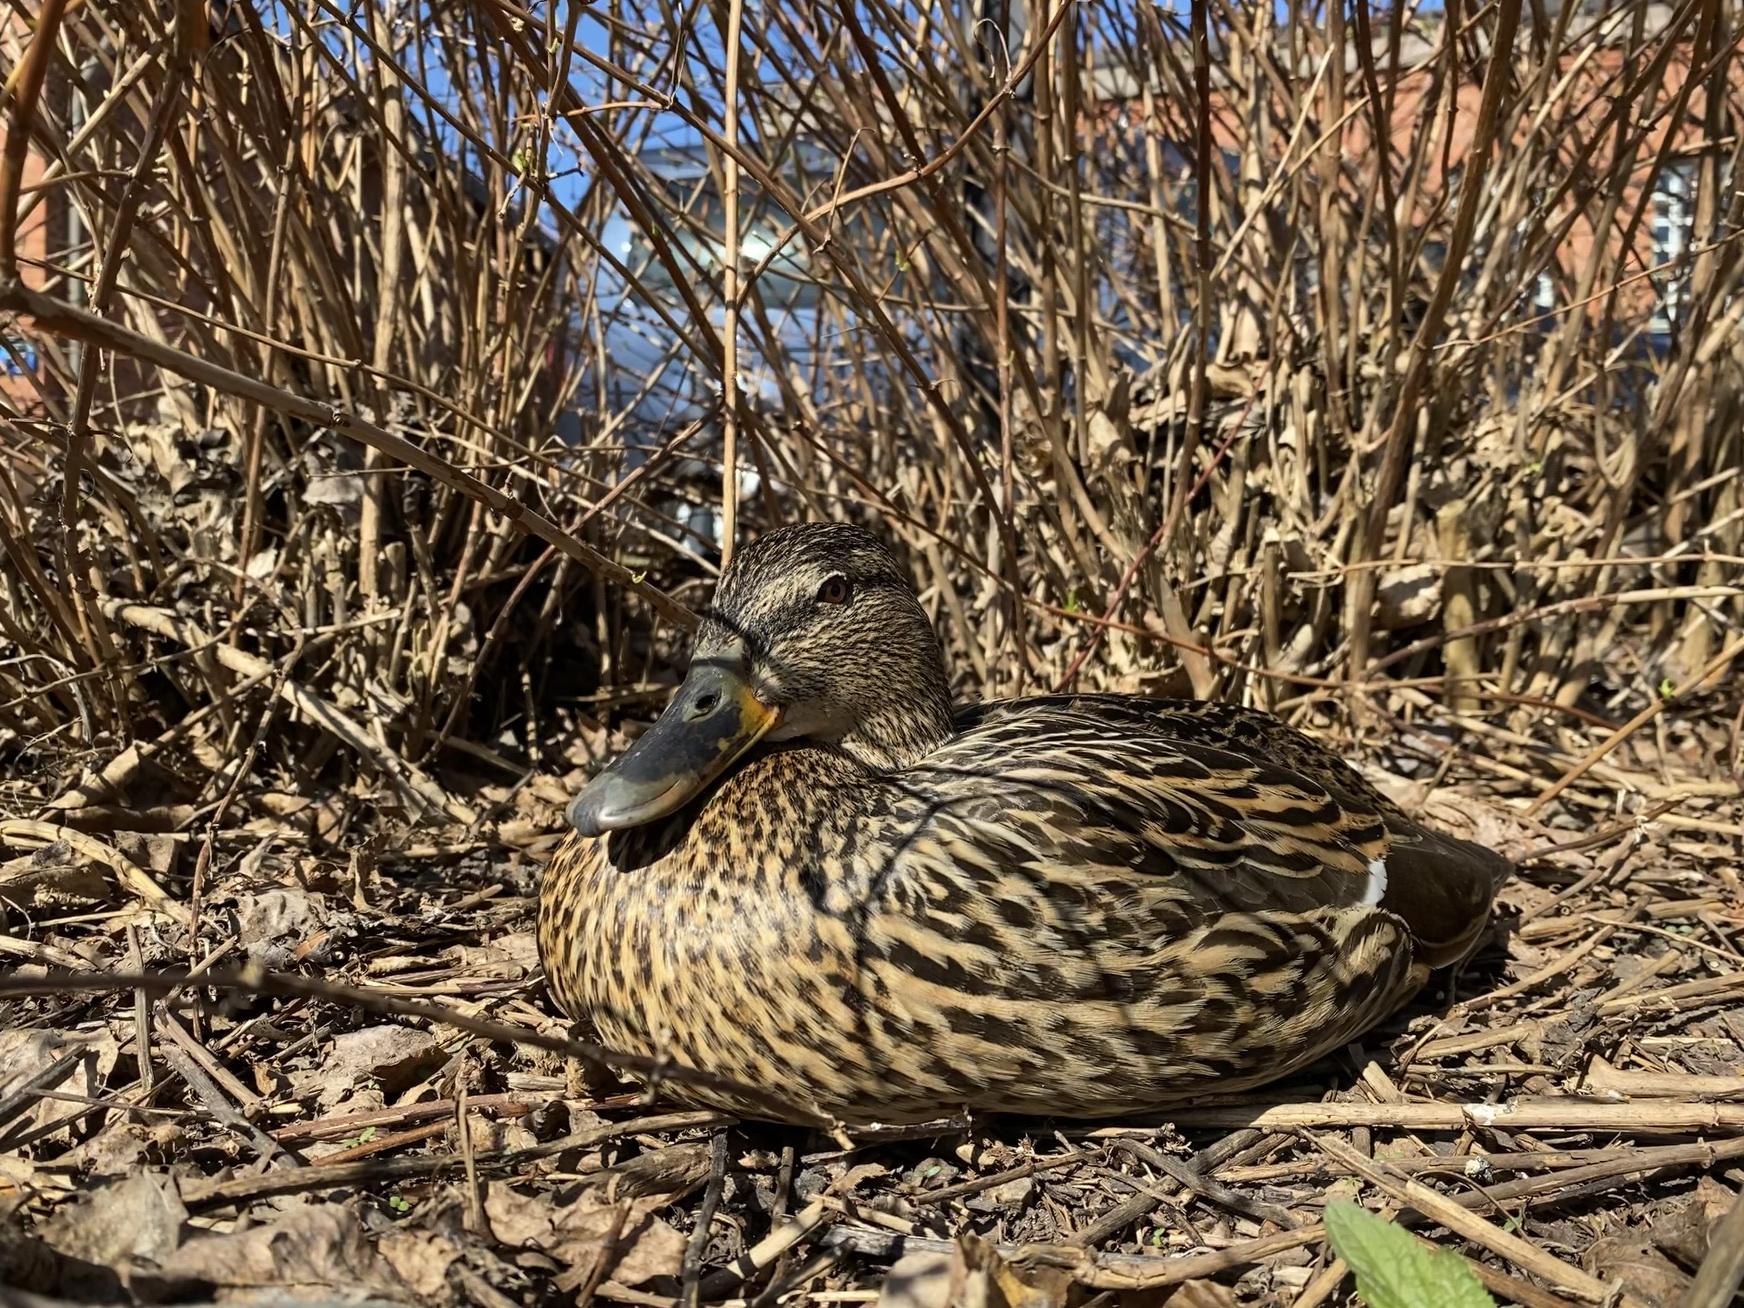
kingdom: Animalia
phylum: Chordata
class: Aves
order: Anseriformes
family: Anatidae
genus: Anas
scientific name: Anas platyrhynchos
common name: Mallard
